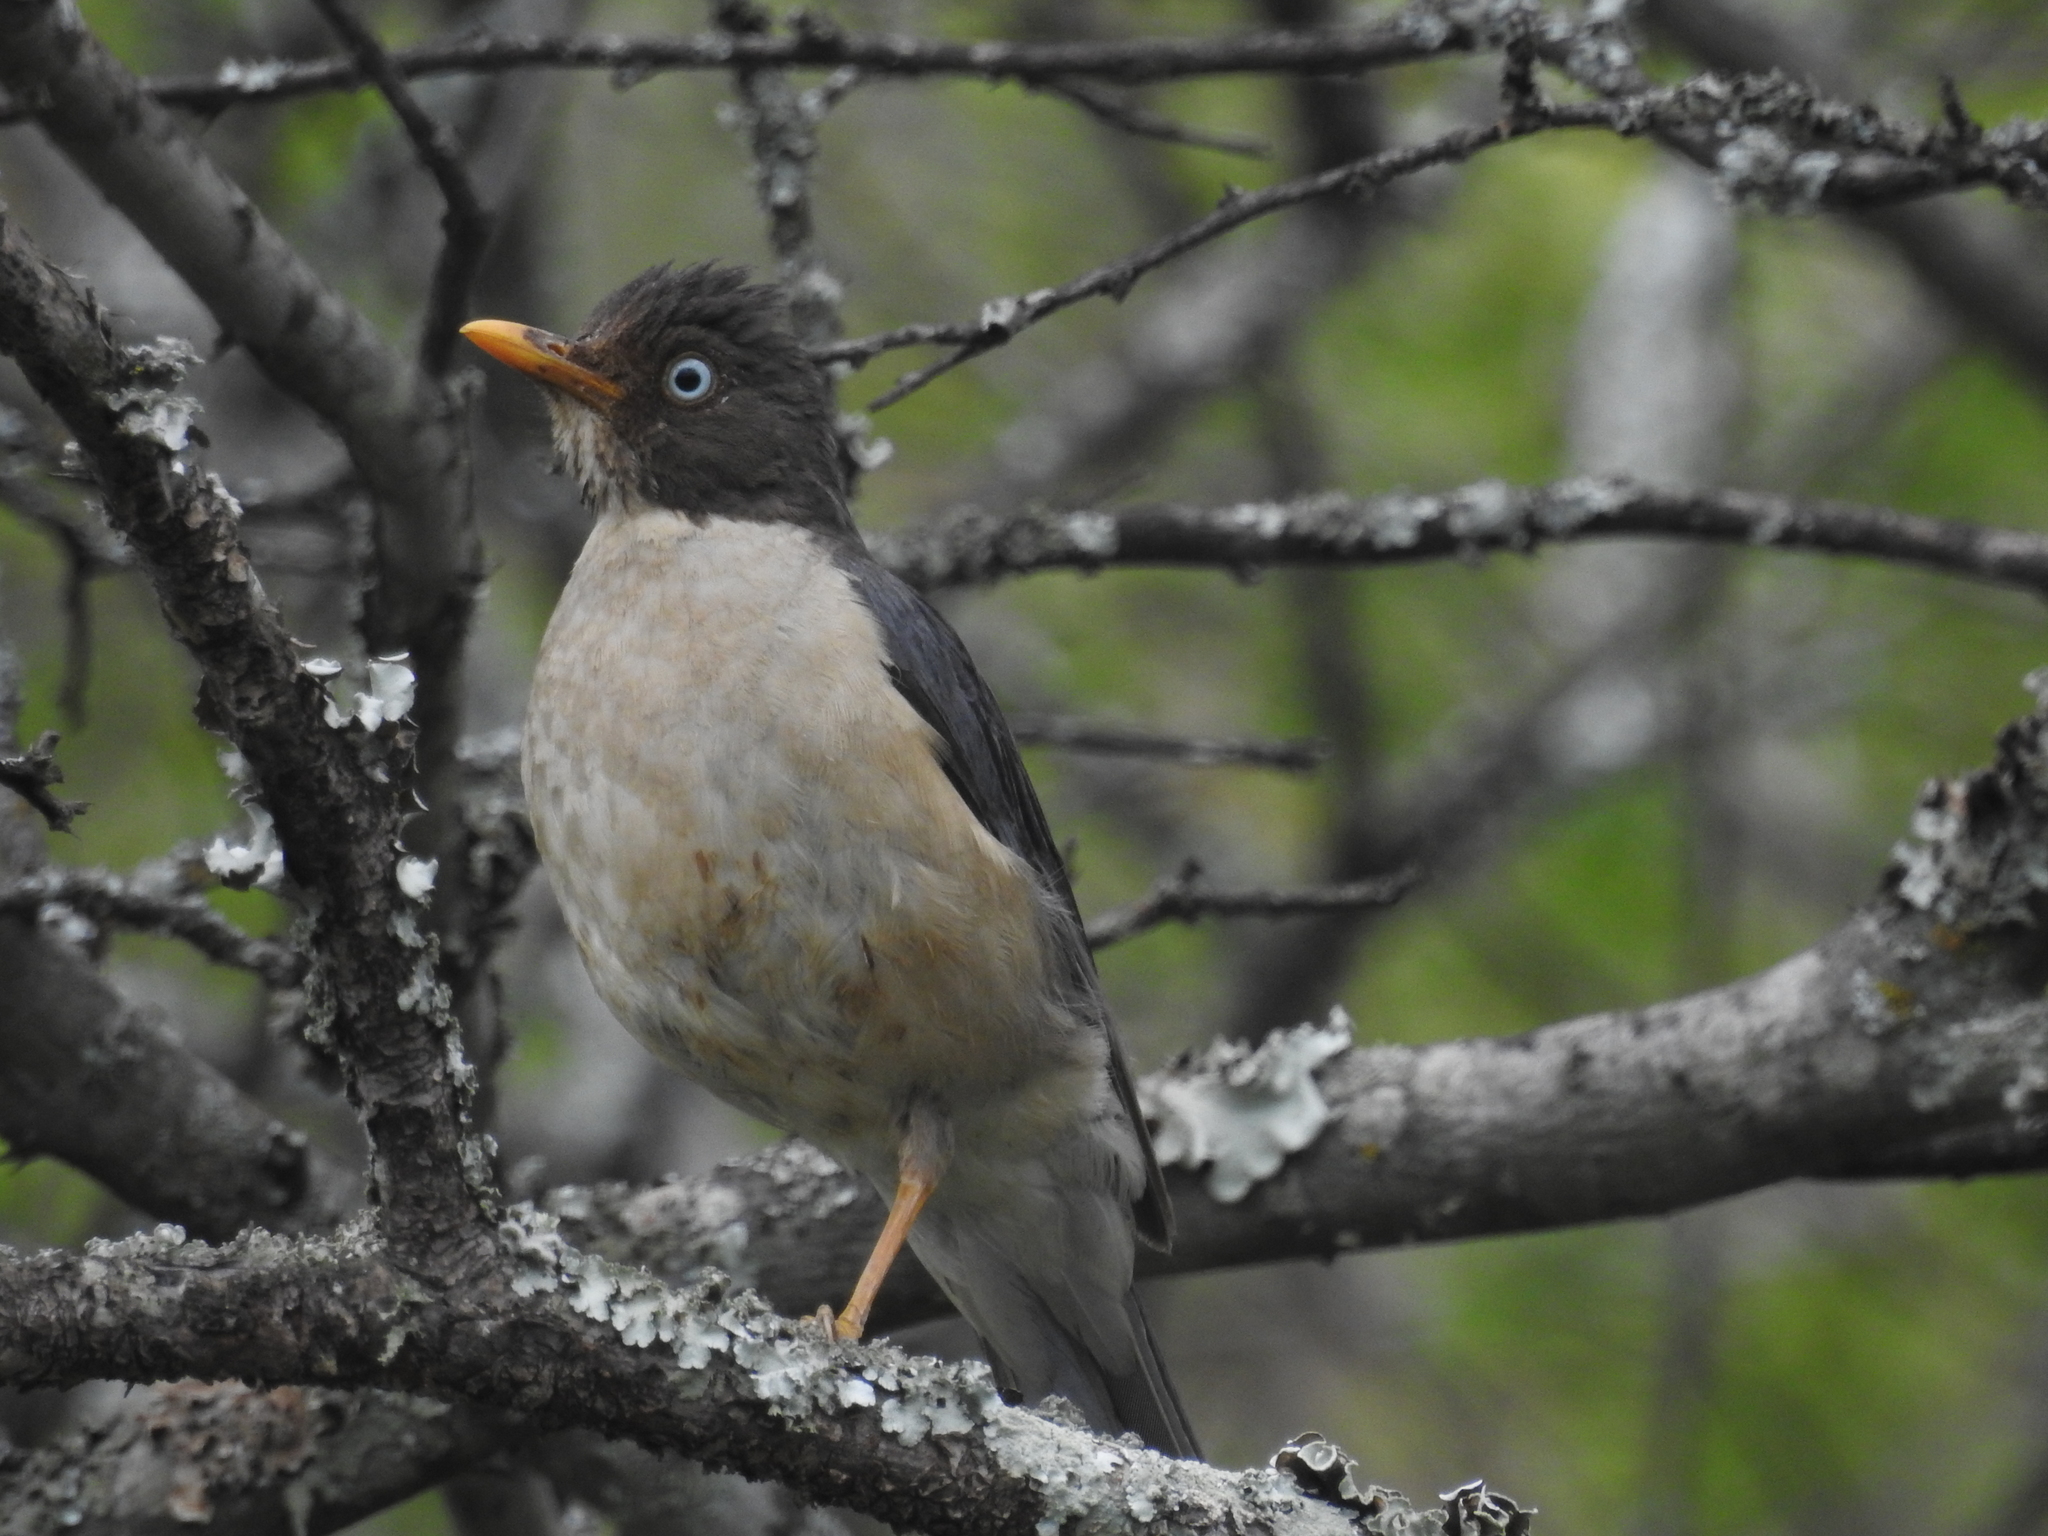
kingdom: Animalia
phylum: Chordata
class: Aves
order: Passeriformes
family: Turdidae
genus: Turdus
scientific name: Turdus reevei
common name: Plumbeous-backed thrush
